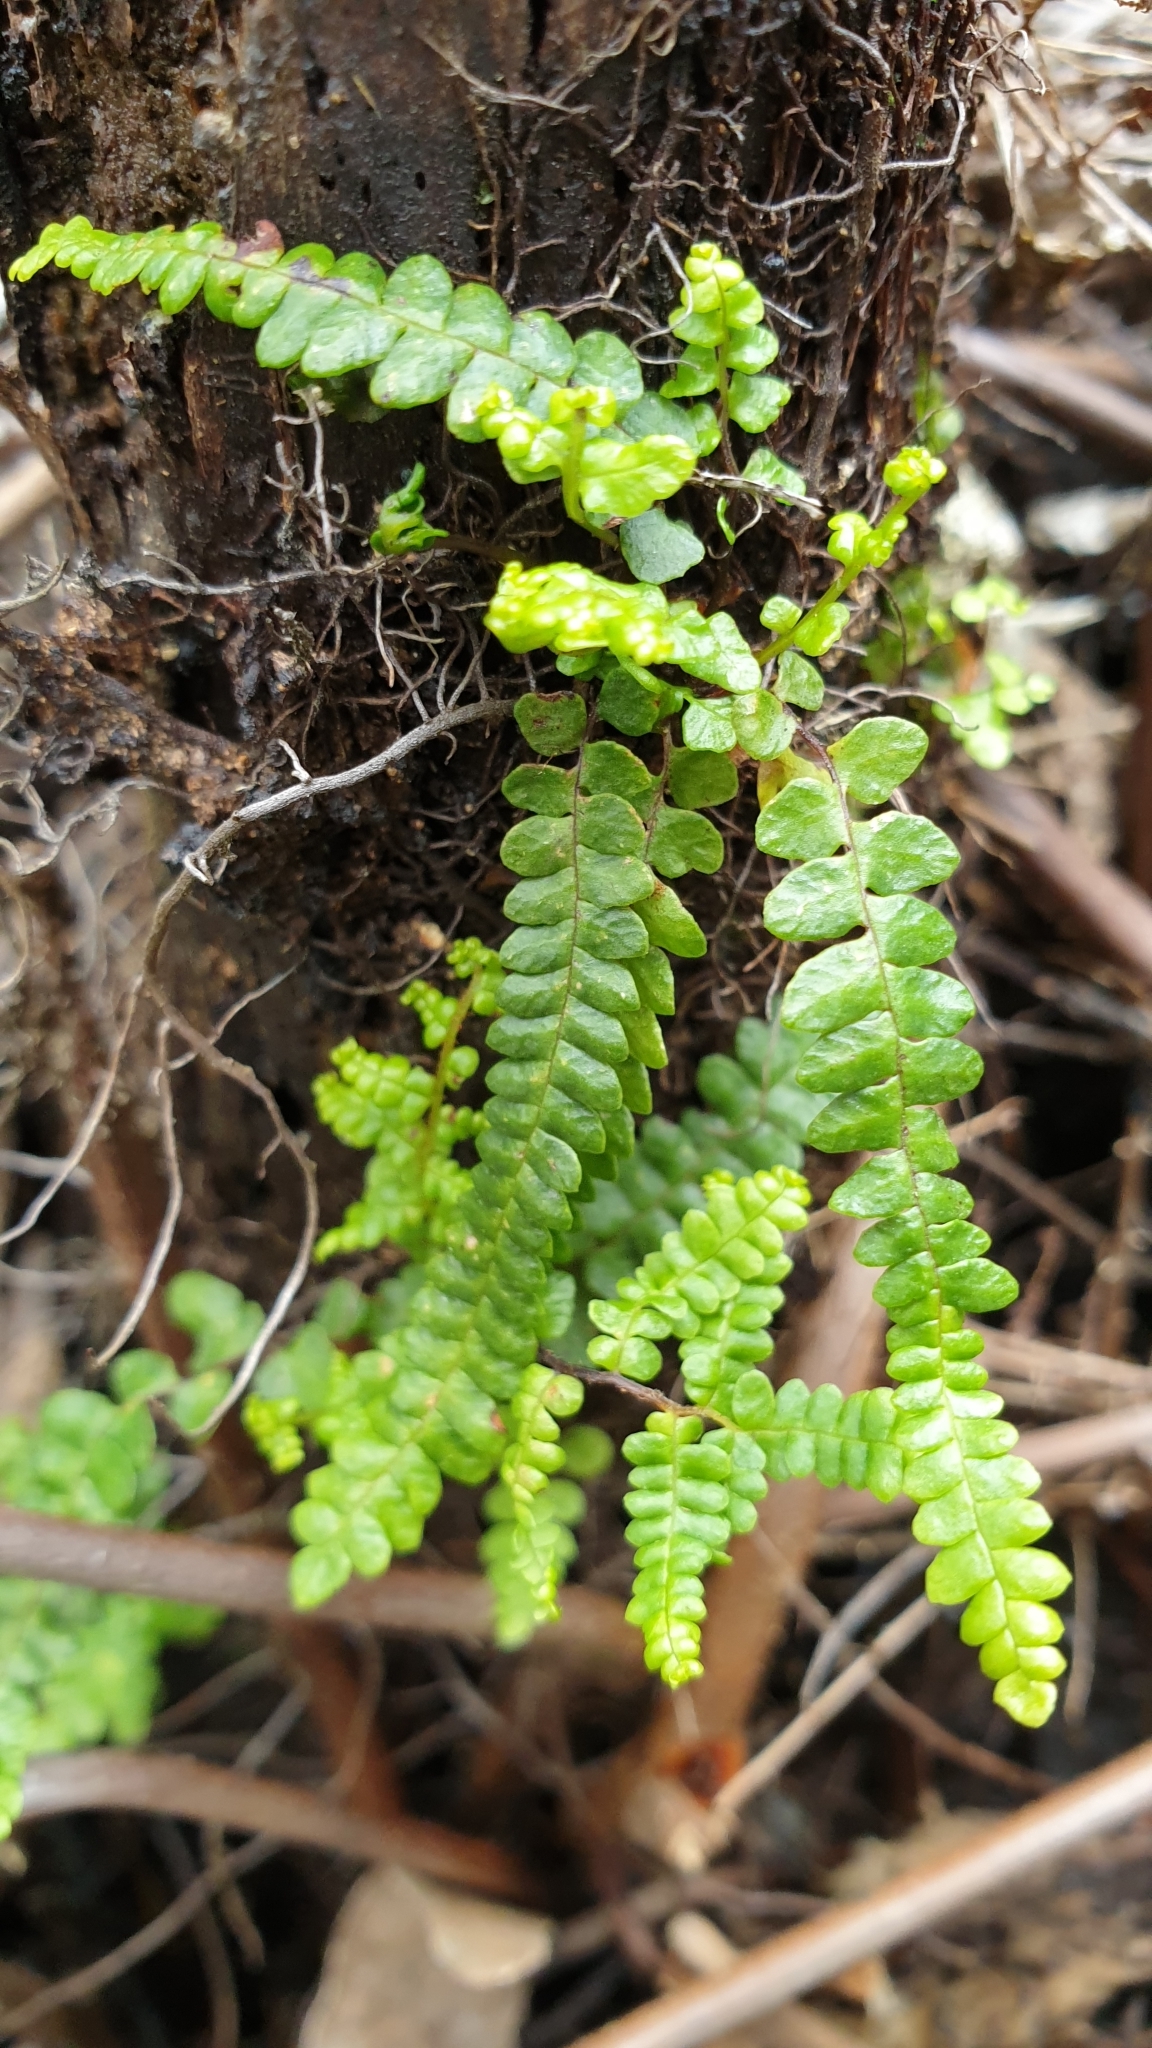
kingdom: Plantae
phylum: Tracheophyta
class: Polypodiopsida
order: Gleicheniales
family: Gleicheniaceae
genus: Gleichenia
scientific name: Gleichenia microphylla
